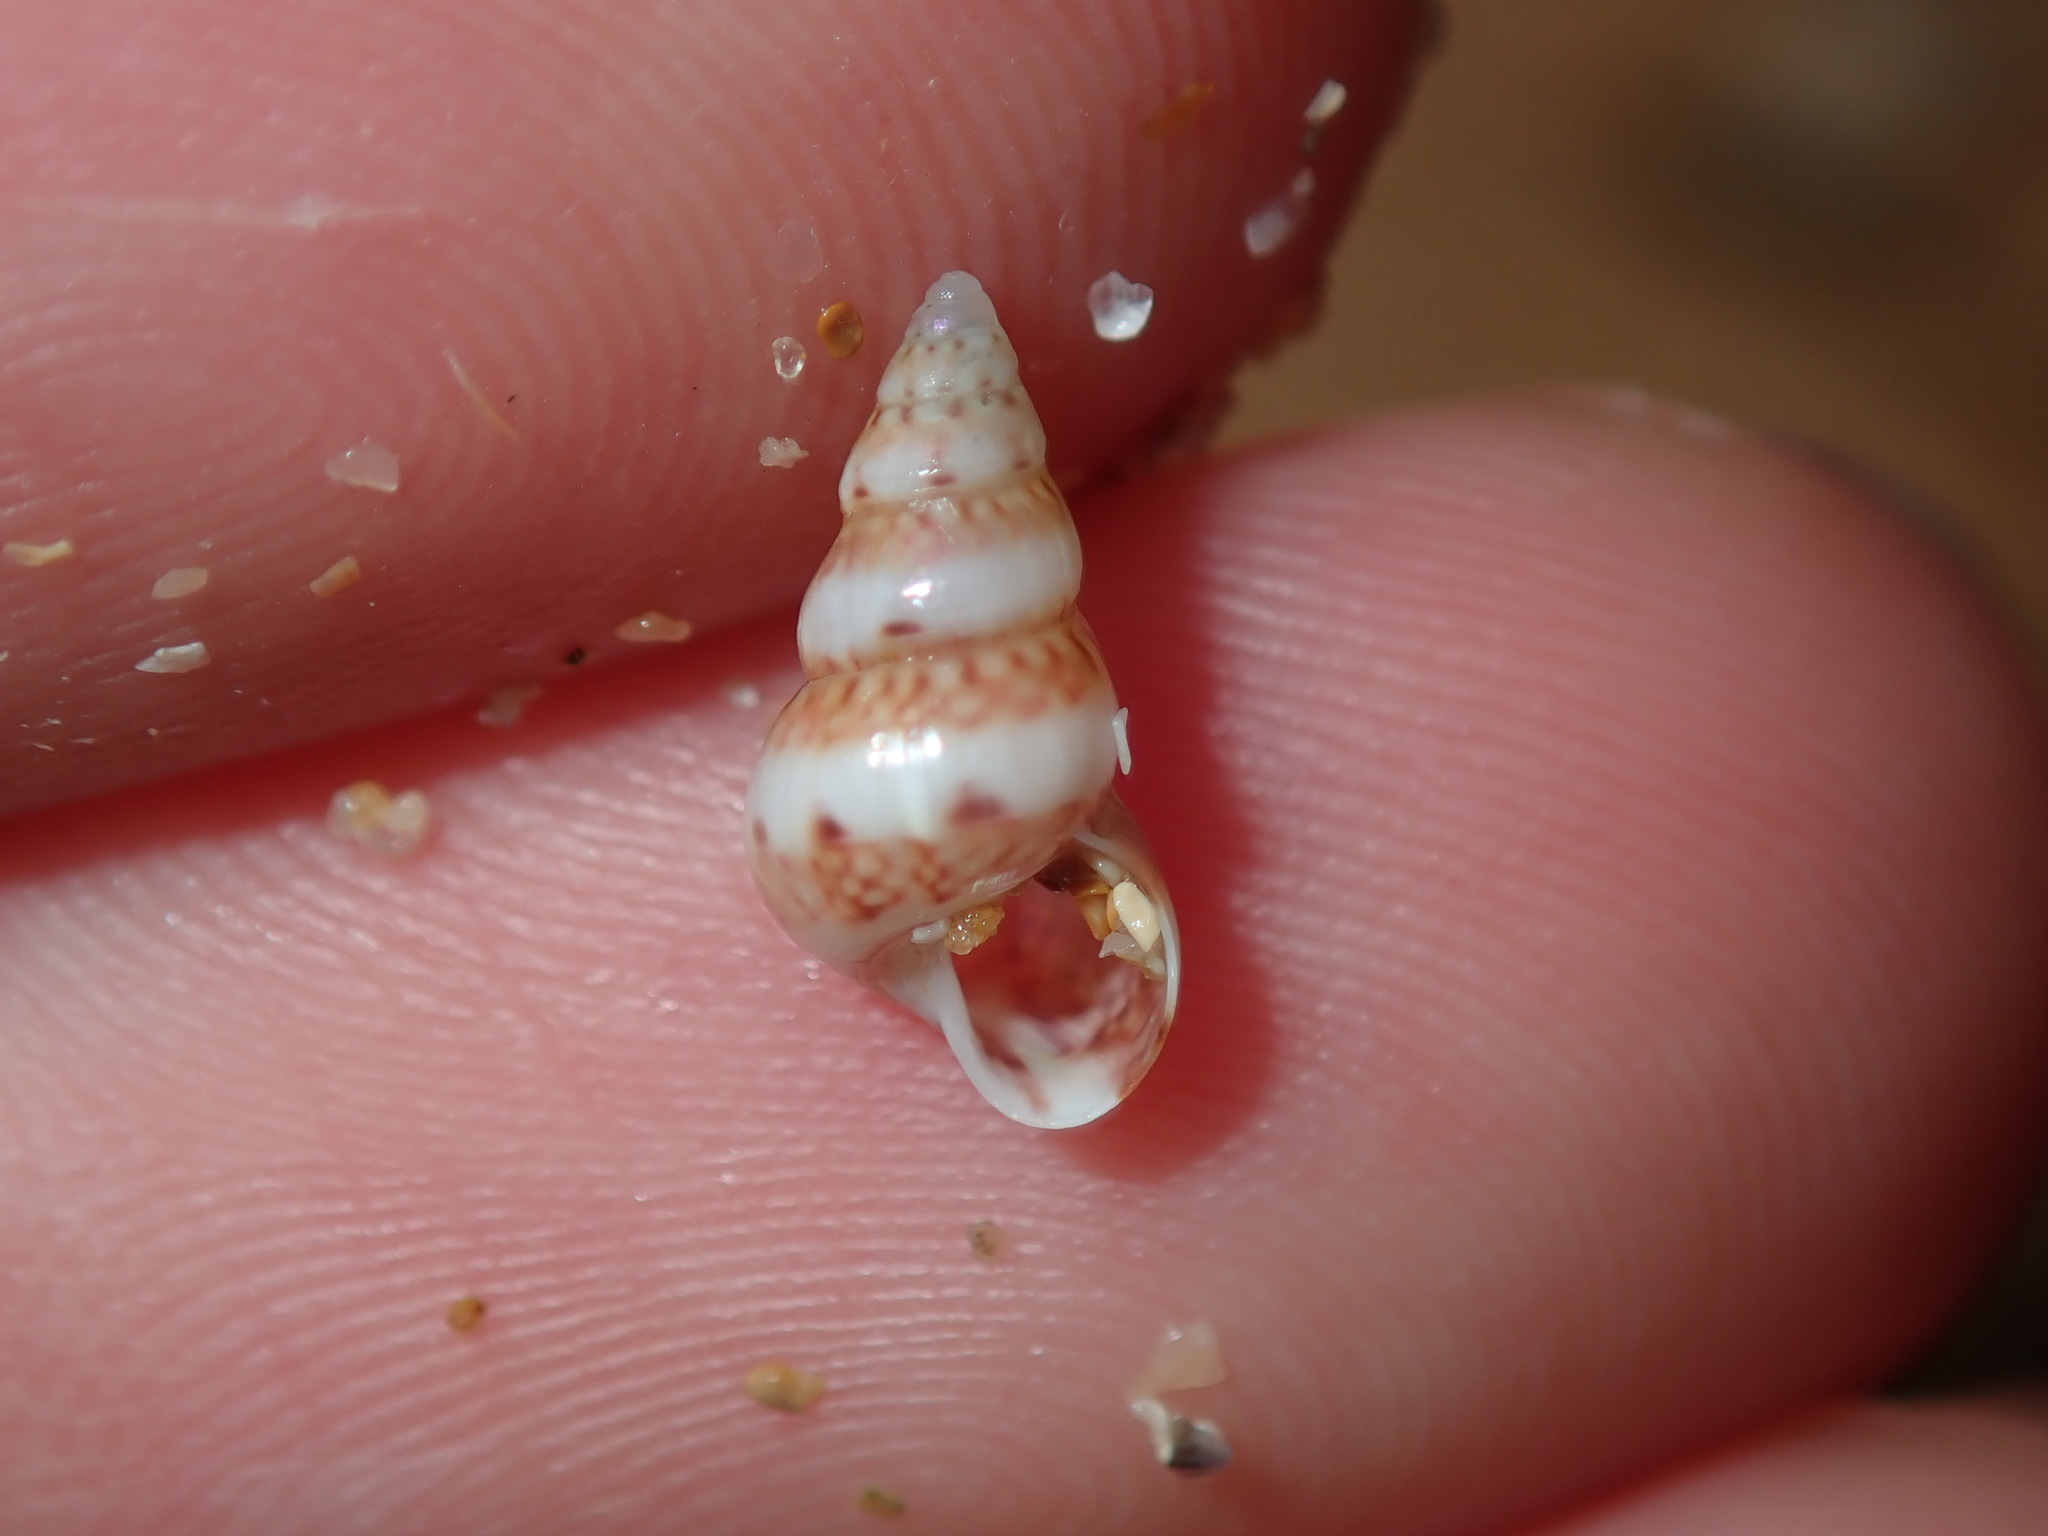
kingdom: Animalia
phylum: Mollusca
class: Gastropoda
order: Trochida
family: Trochidae
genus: Leiopyrga
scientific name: Leiopyrga lineolaris
